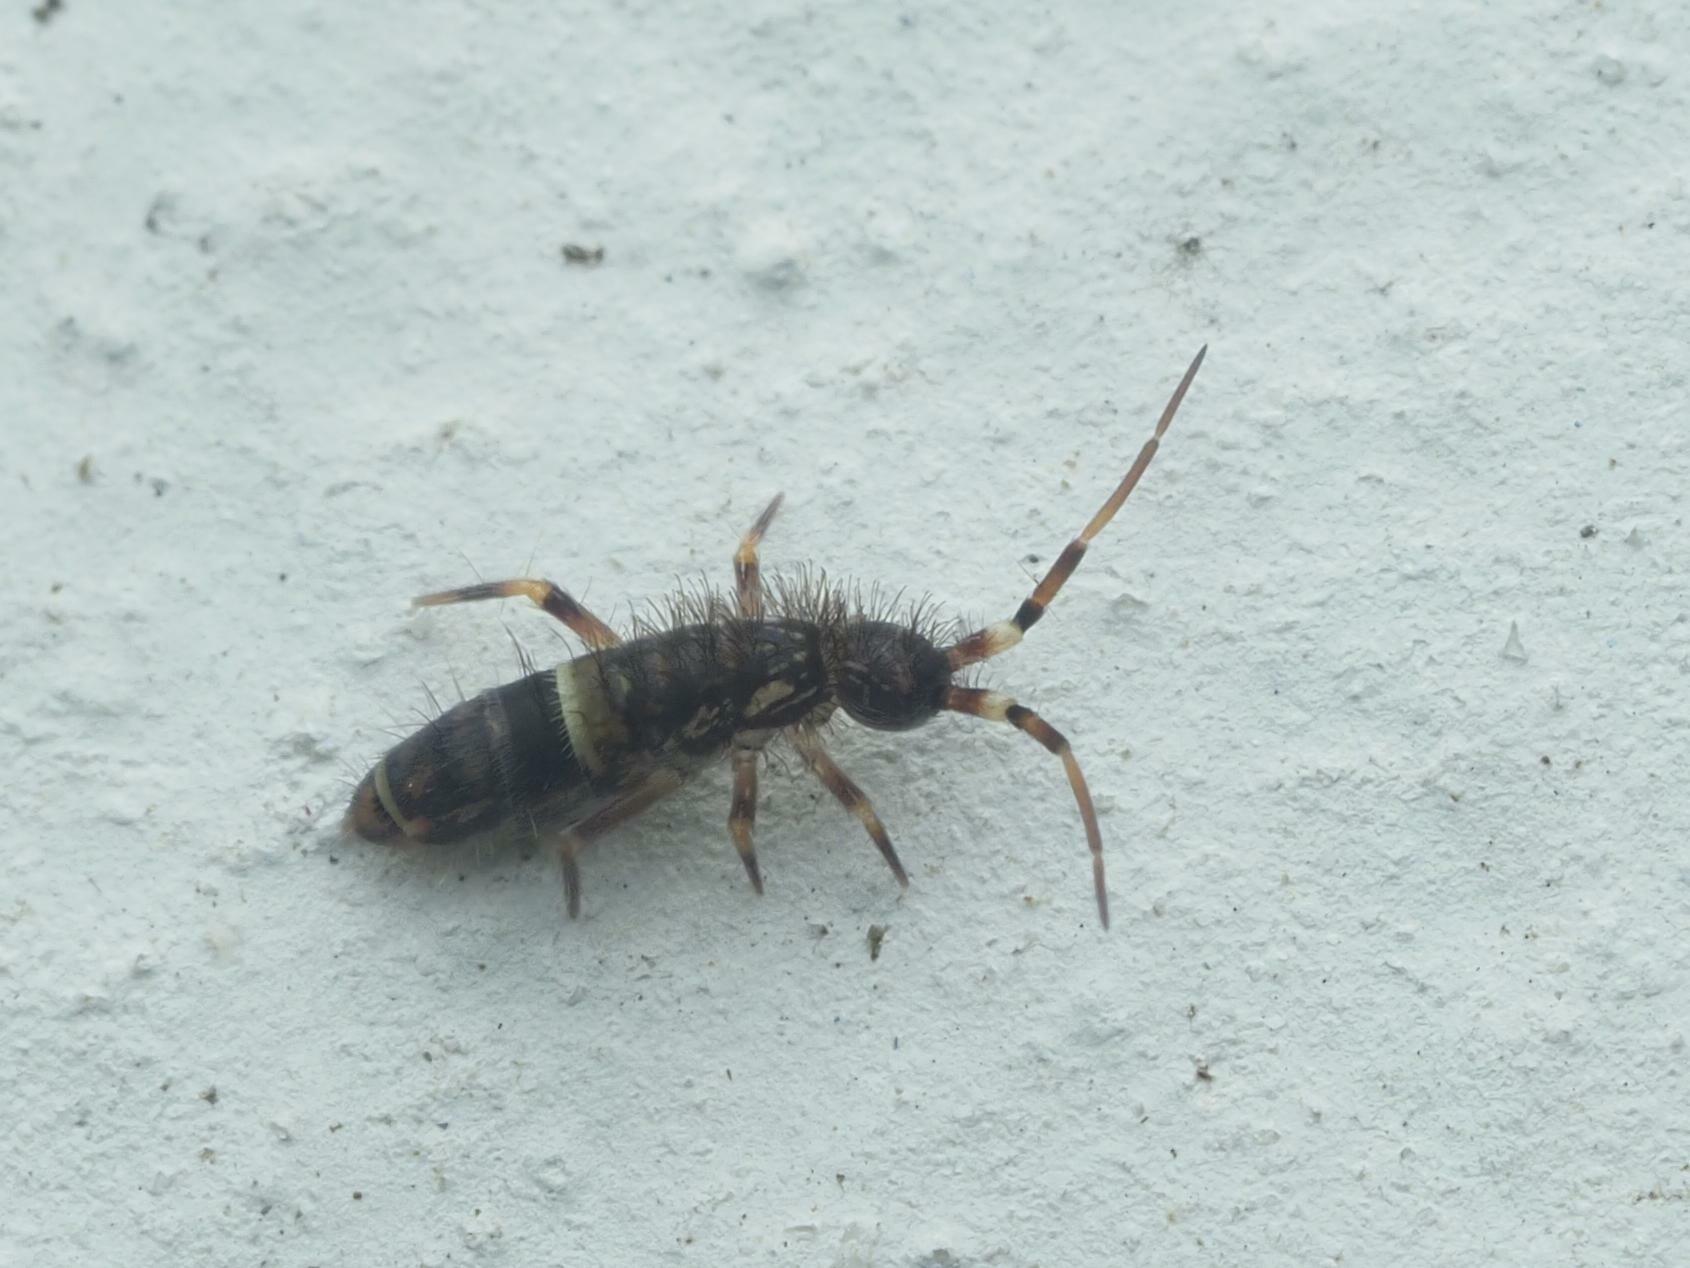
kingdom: Animalia
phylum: Arthropoda
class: Collembola
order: Entomobryomorpha
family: Orchesellidae
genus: Orchesella
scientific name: Orchesella cincta
